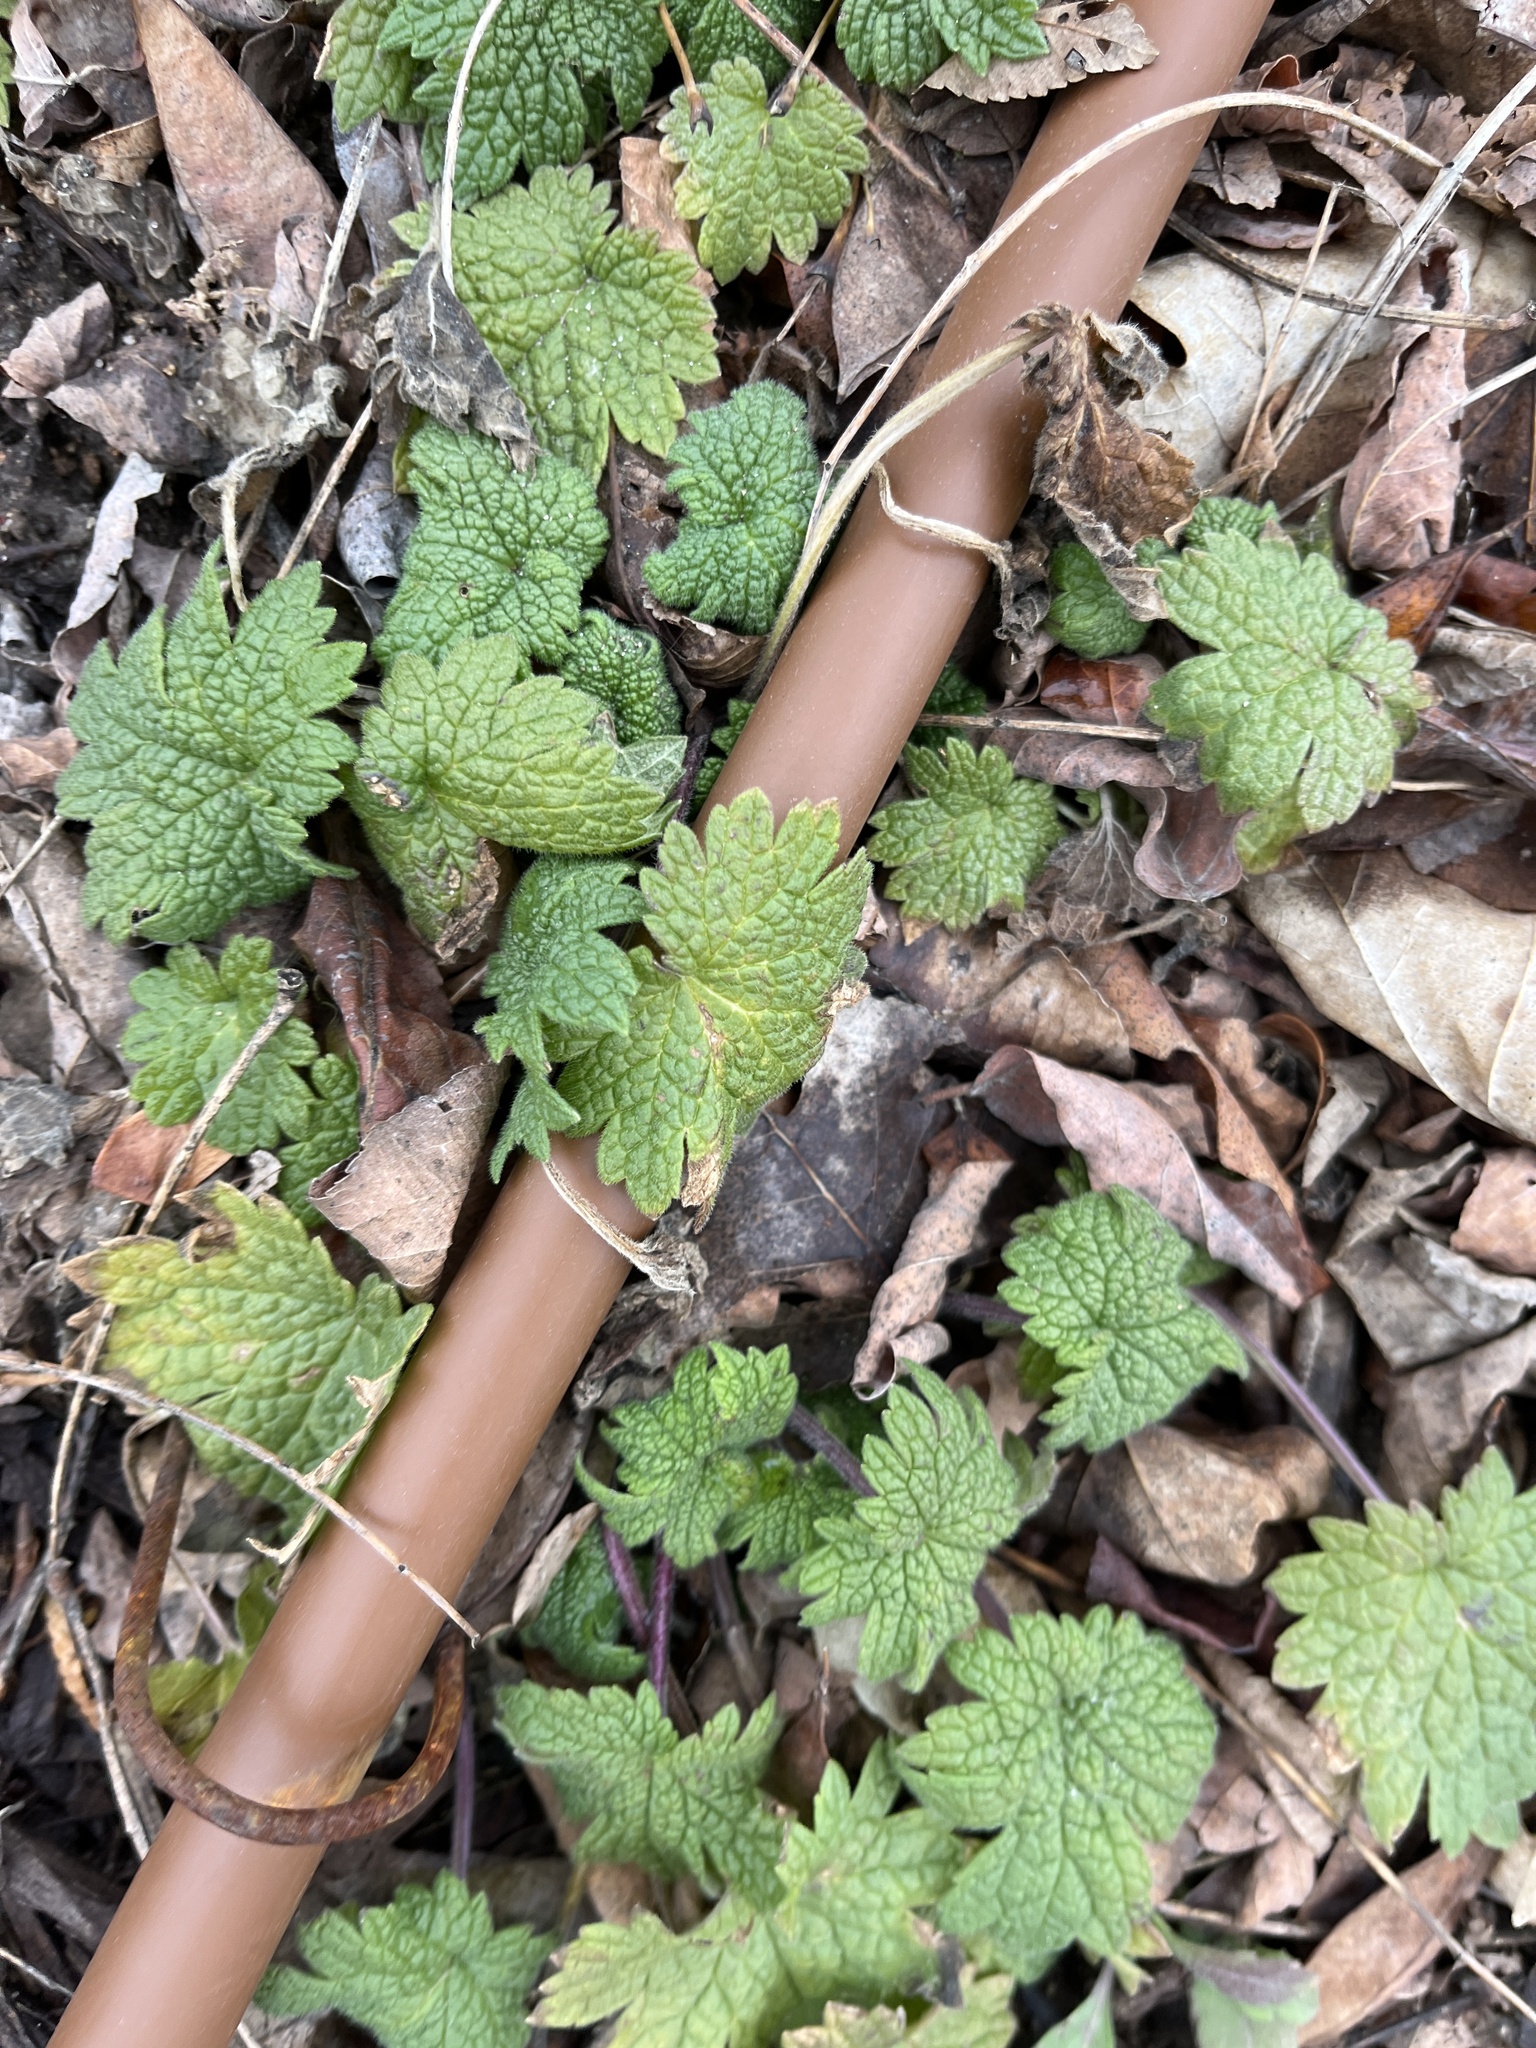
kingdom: Plantae
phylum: Tracheophyta
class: Magnoliopsida
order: Lamiales
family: Lamiaceae
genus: Leonurus
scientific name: Leonurus cardiaca
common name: Motherwort
